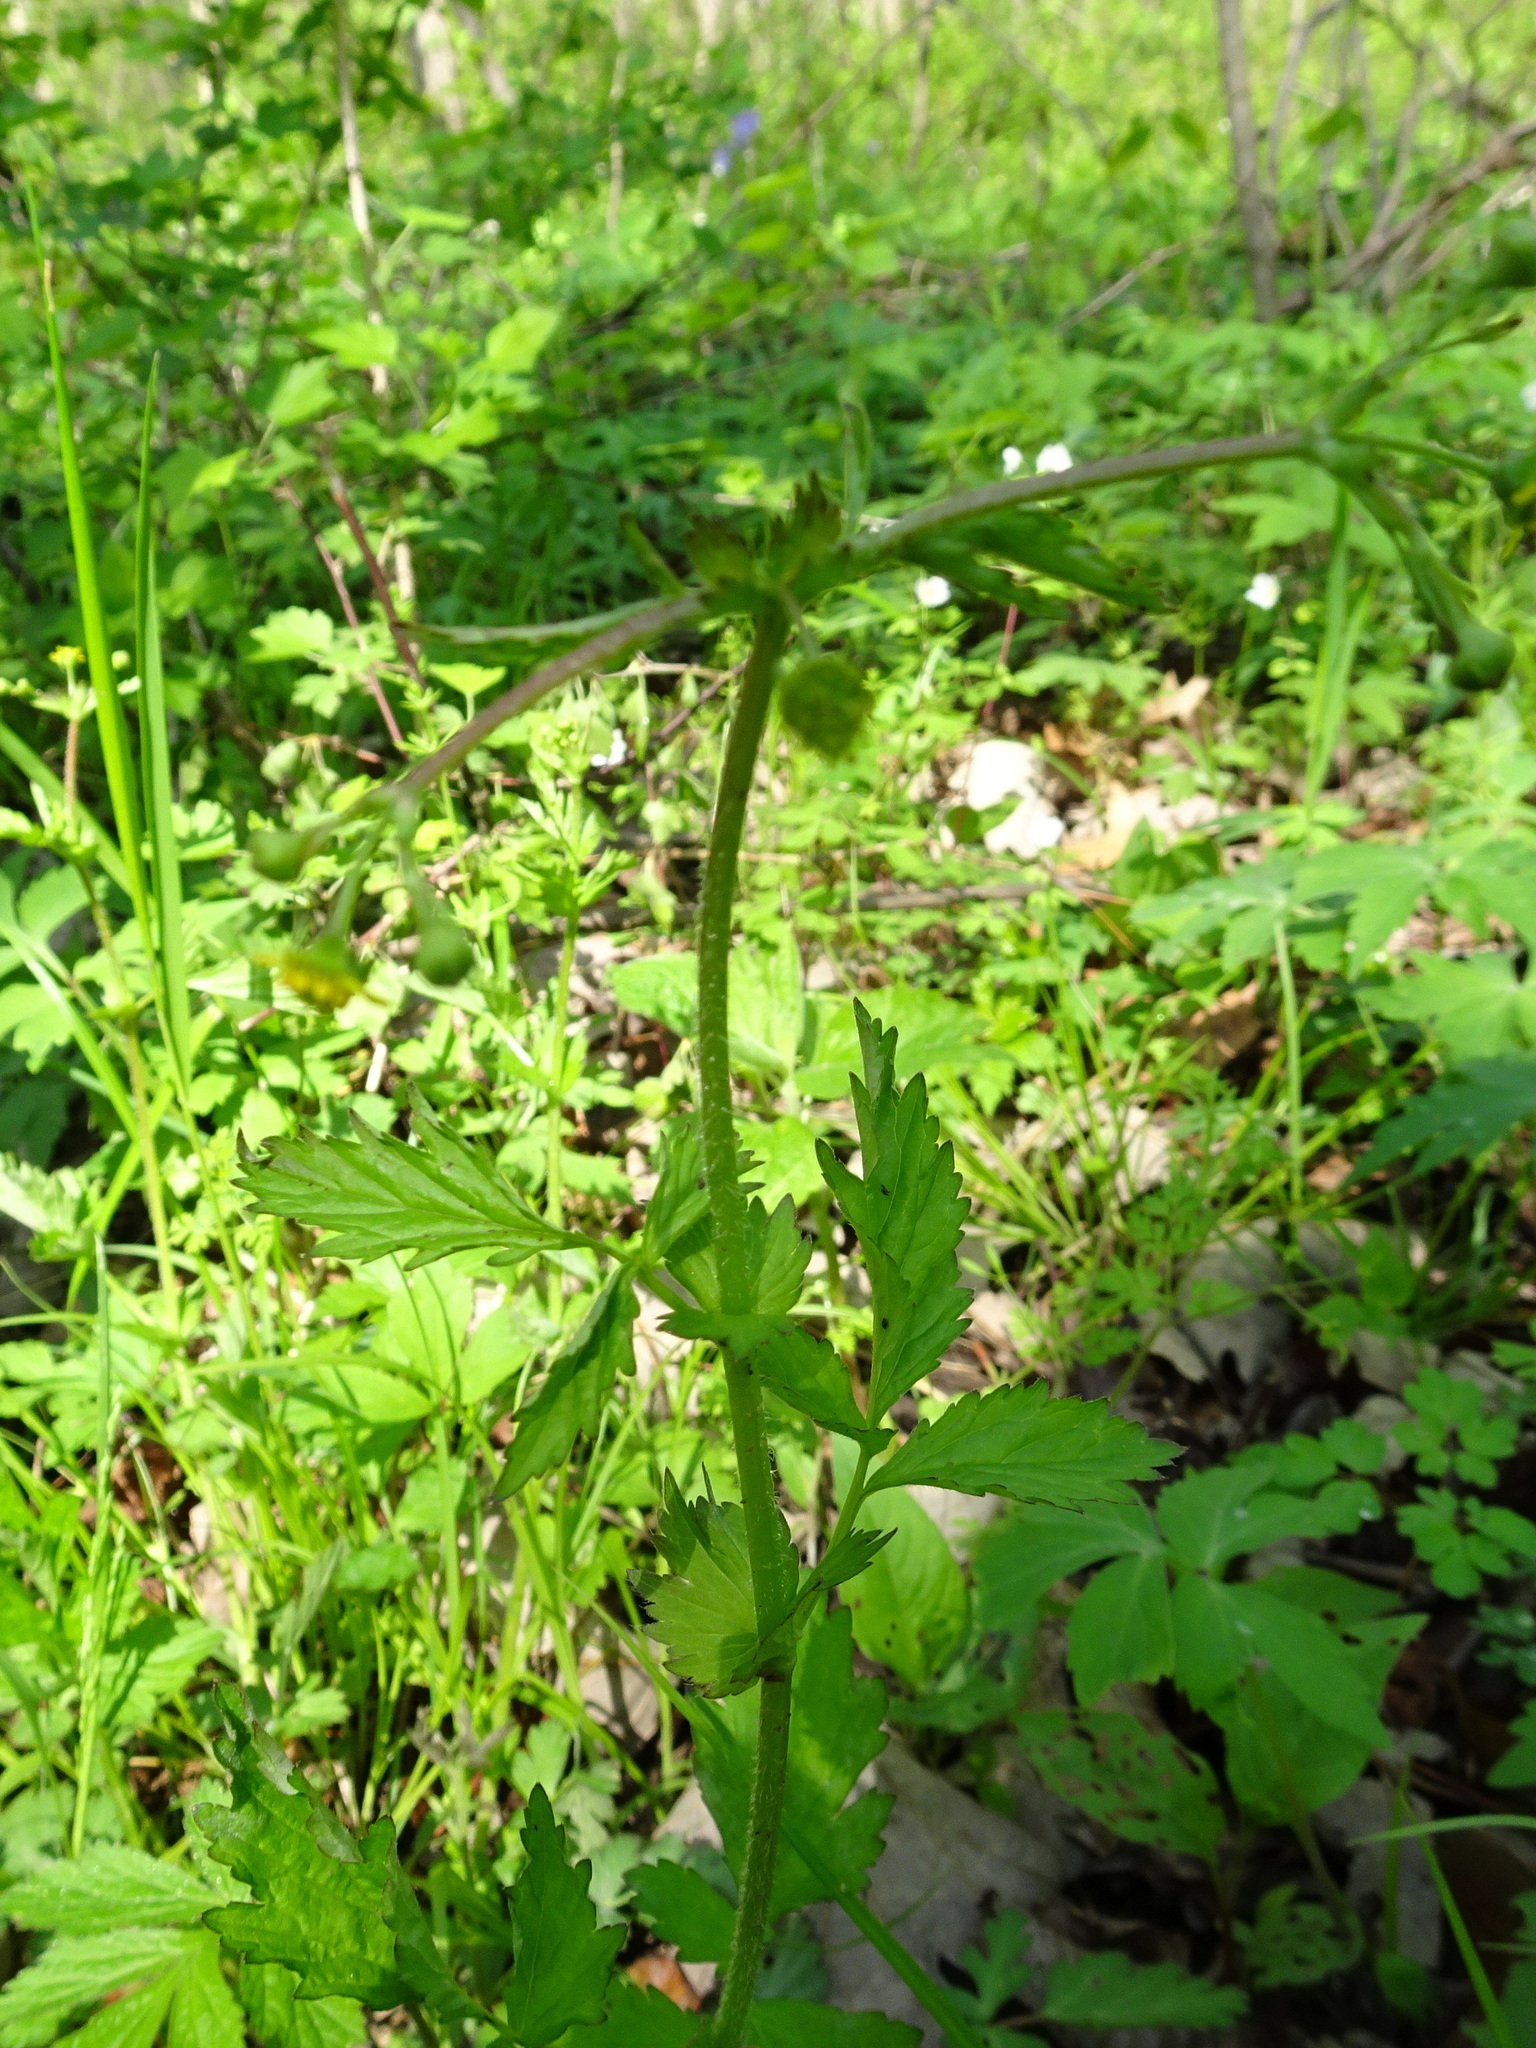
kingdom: Plantae
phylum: Tracheophyta
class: Magnoliopsida
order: Rosales
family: Rosaceae
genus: Geum
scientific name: Geum vernum
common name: Spring avens
